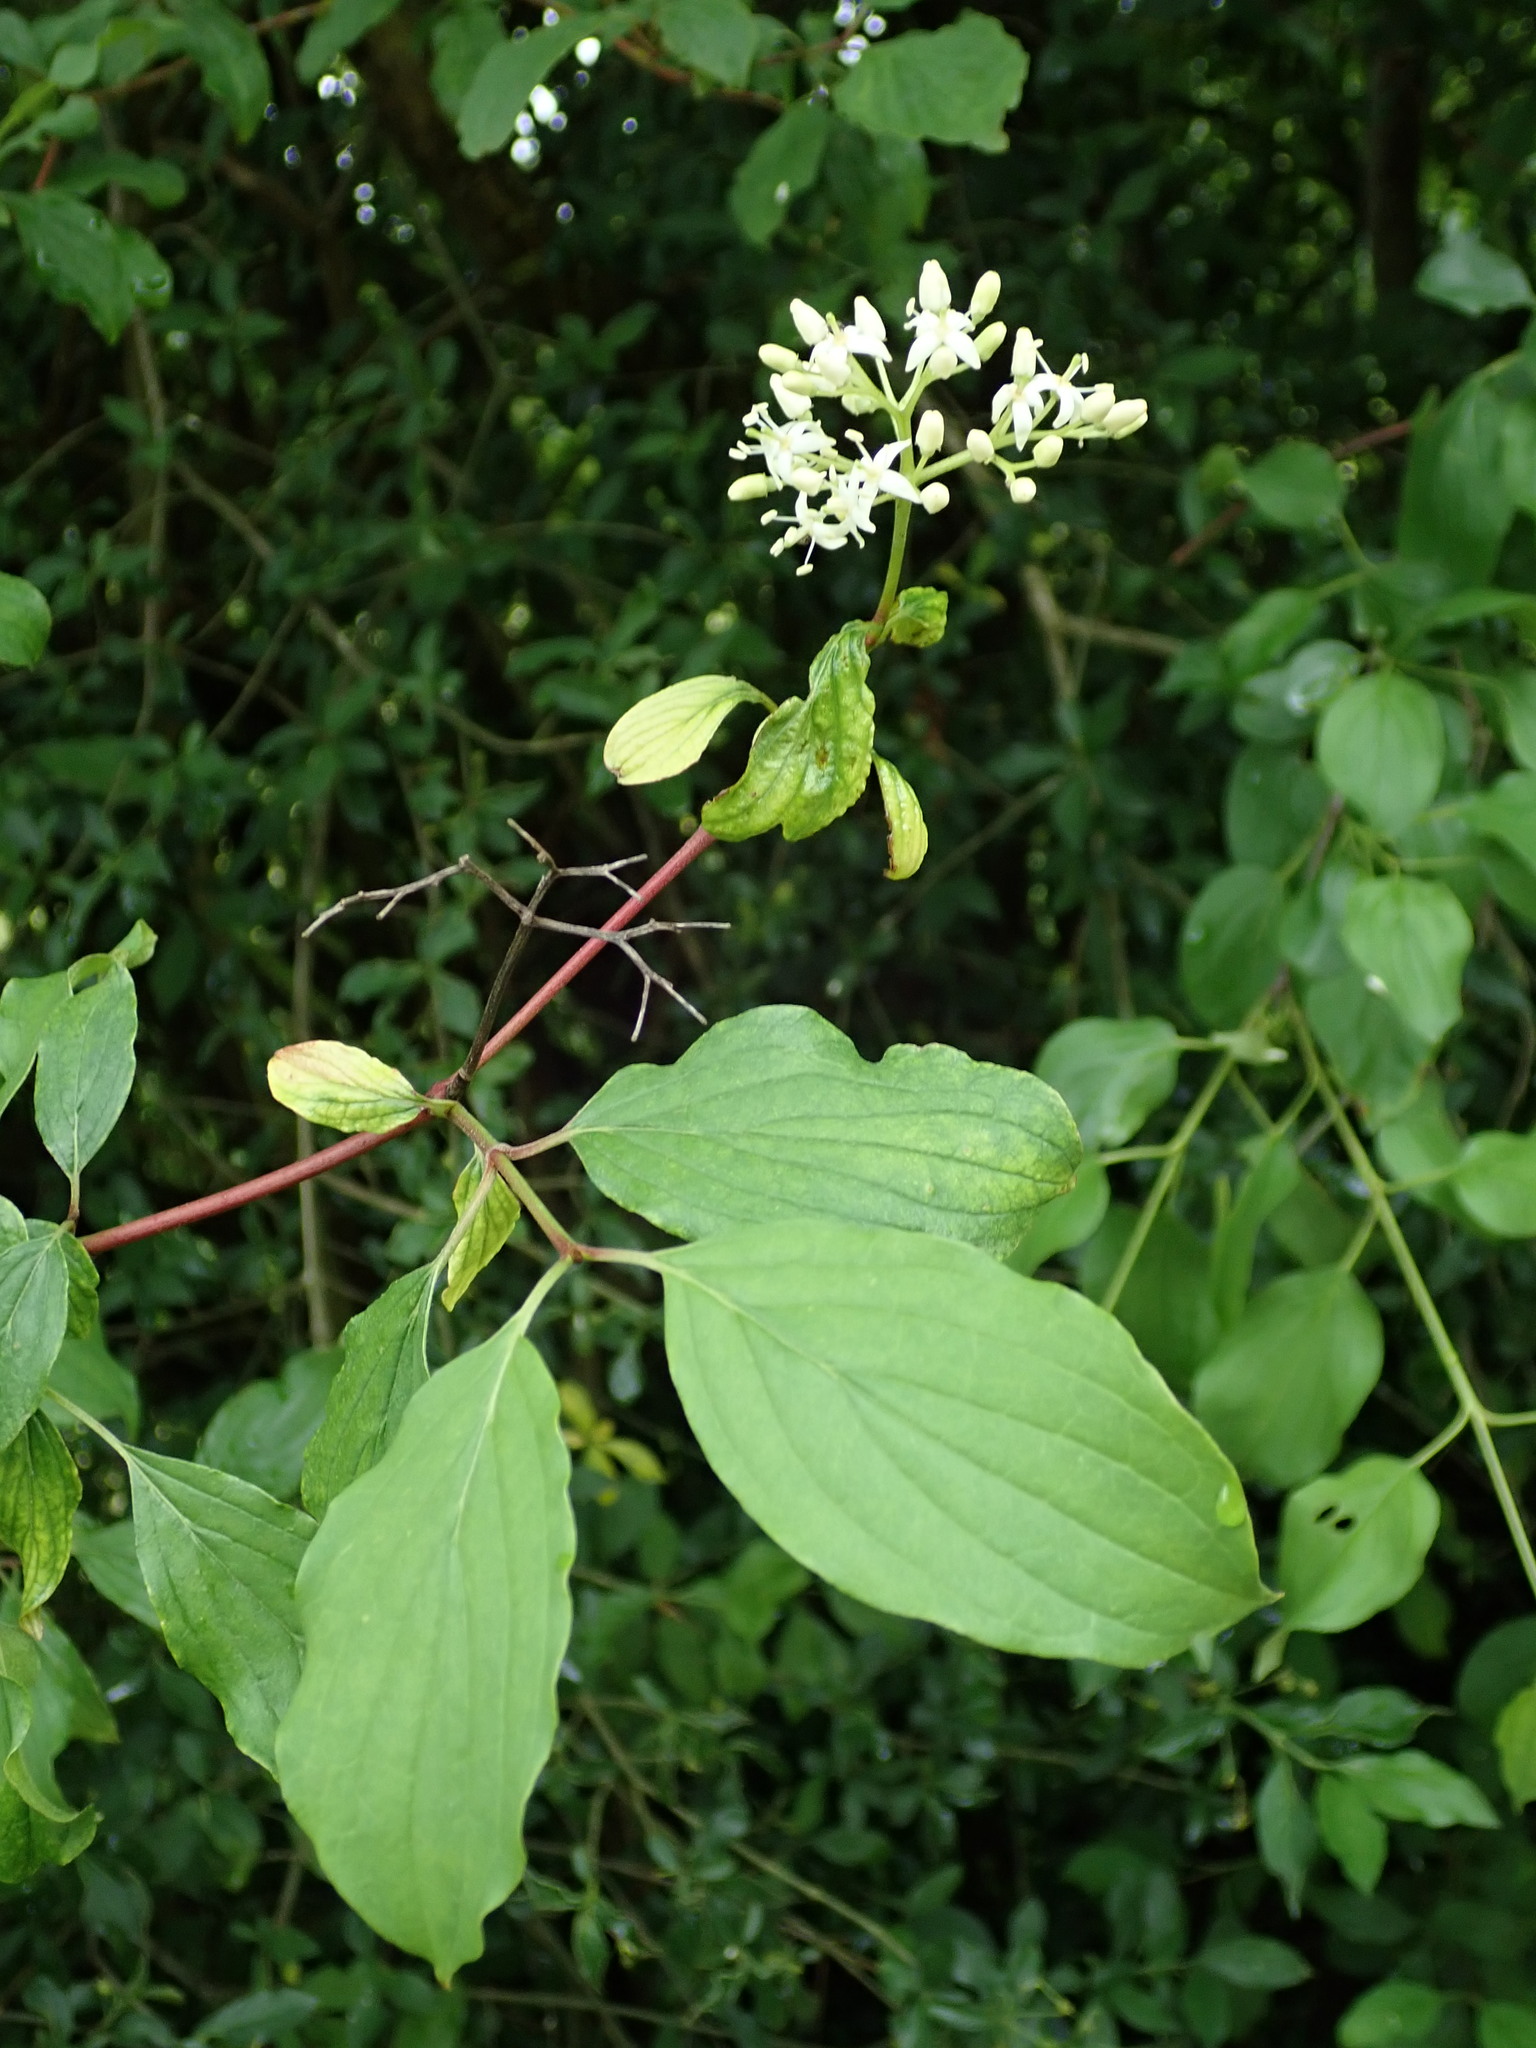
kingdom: Plantae
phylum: Tracheophyta
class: Magnoliopsida
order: Cornales
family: Cornaceae
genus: Cornus
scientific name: Cornus sanguinea
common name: Dogwood
